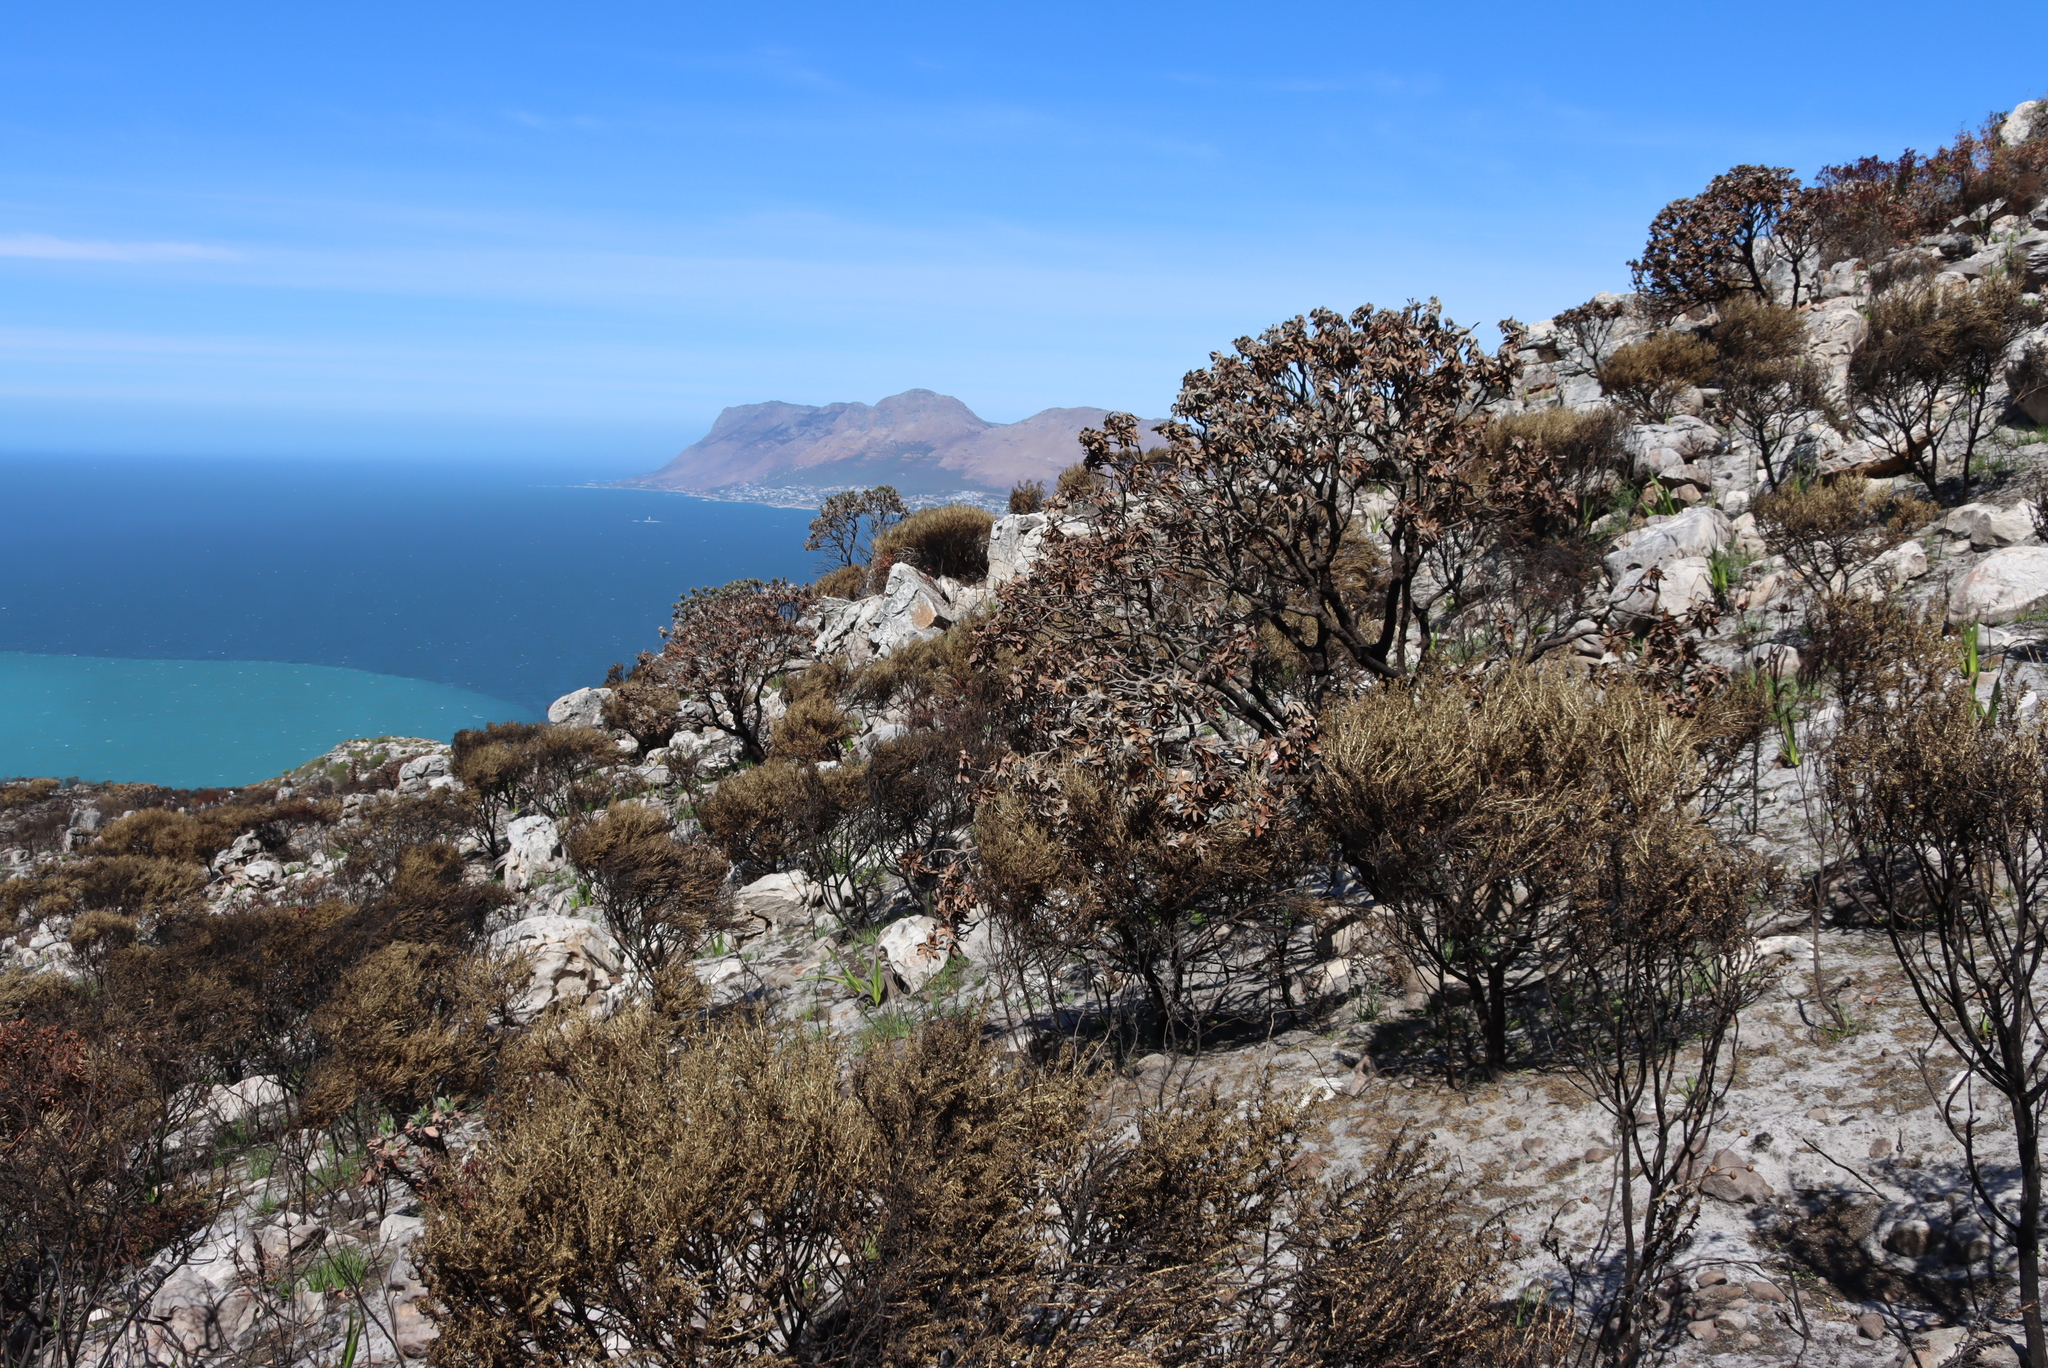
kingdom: Plantae
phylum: Tracheophyta
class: Magnoliopsida
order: Proteales
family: Proteaceae
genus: Leucospermum
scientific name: Leucospermum conocarpodendron
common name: Tree pincushion
